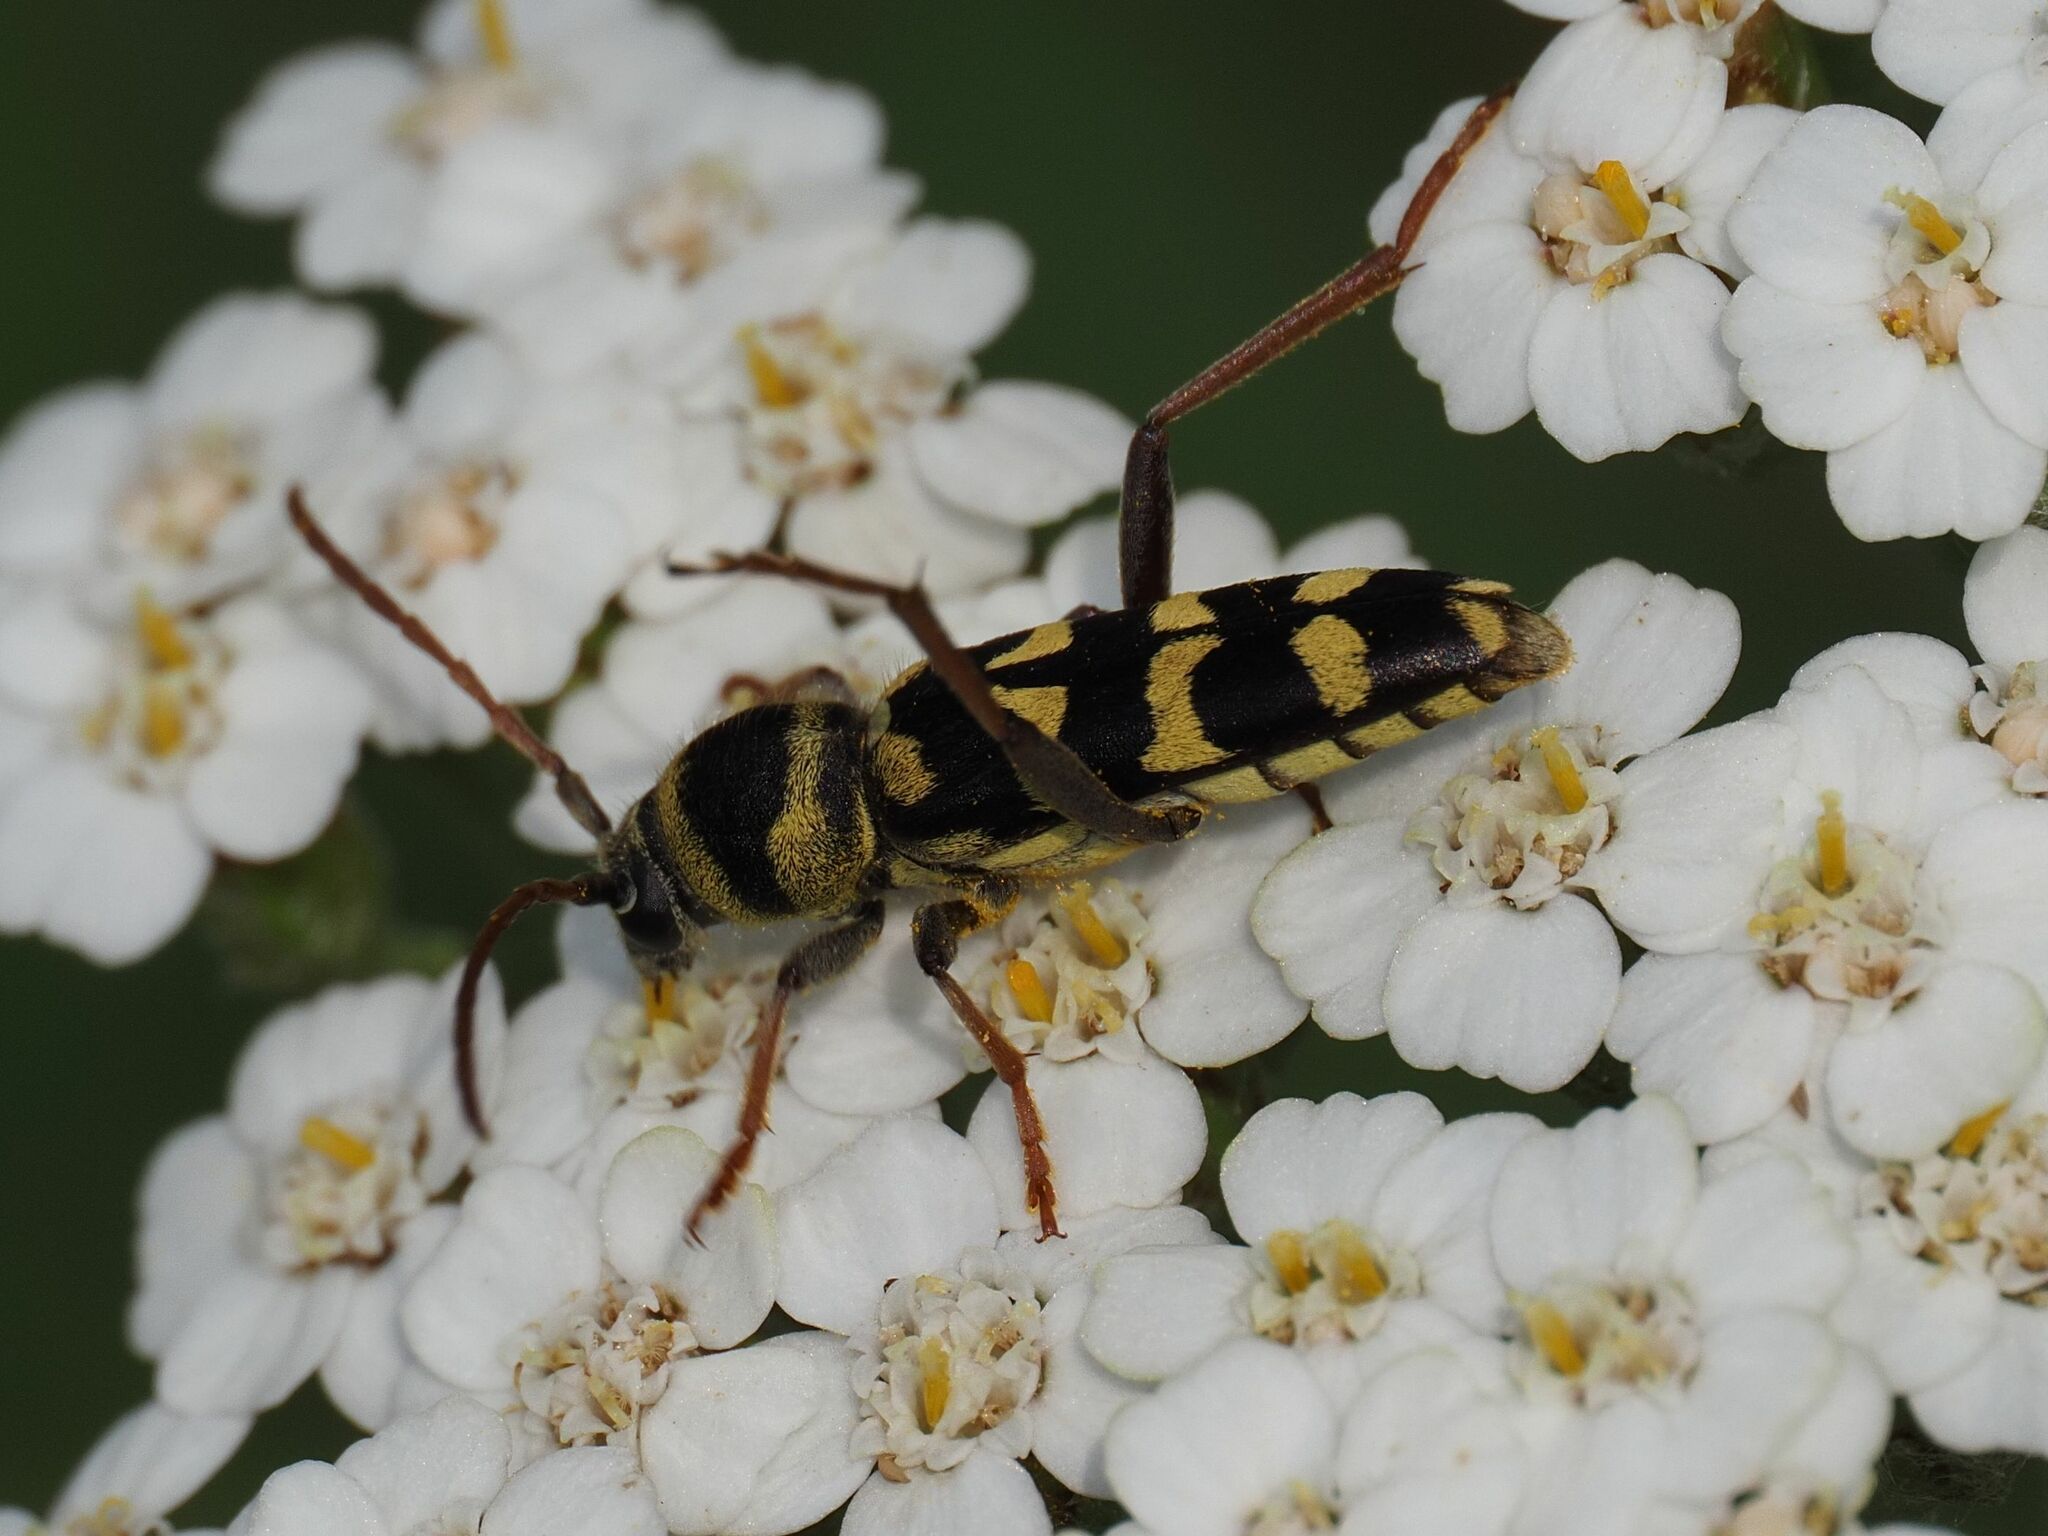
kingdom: Animalia
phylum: Arthropoda
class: Insecta
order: Coleoptera
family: Cerambycidae
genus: Plagionotus
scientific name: Plagionotus floralis
